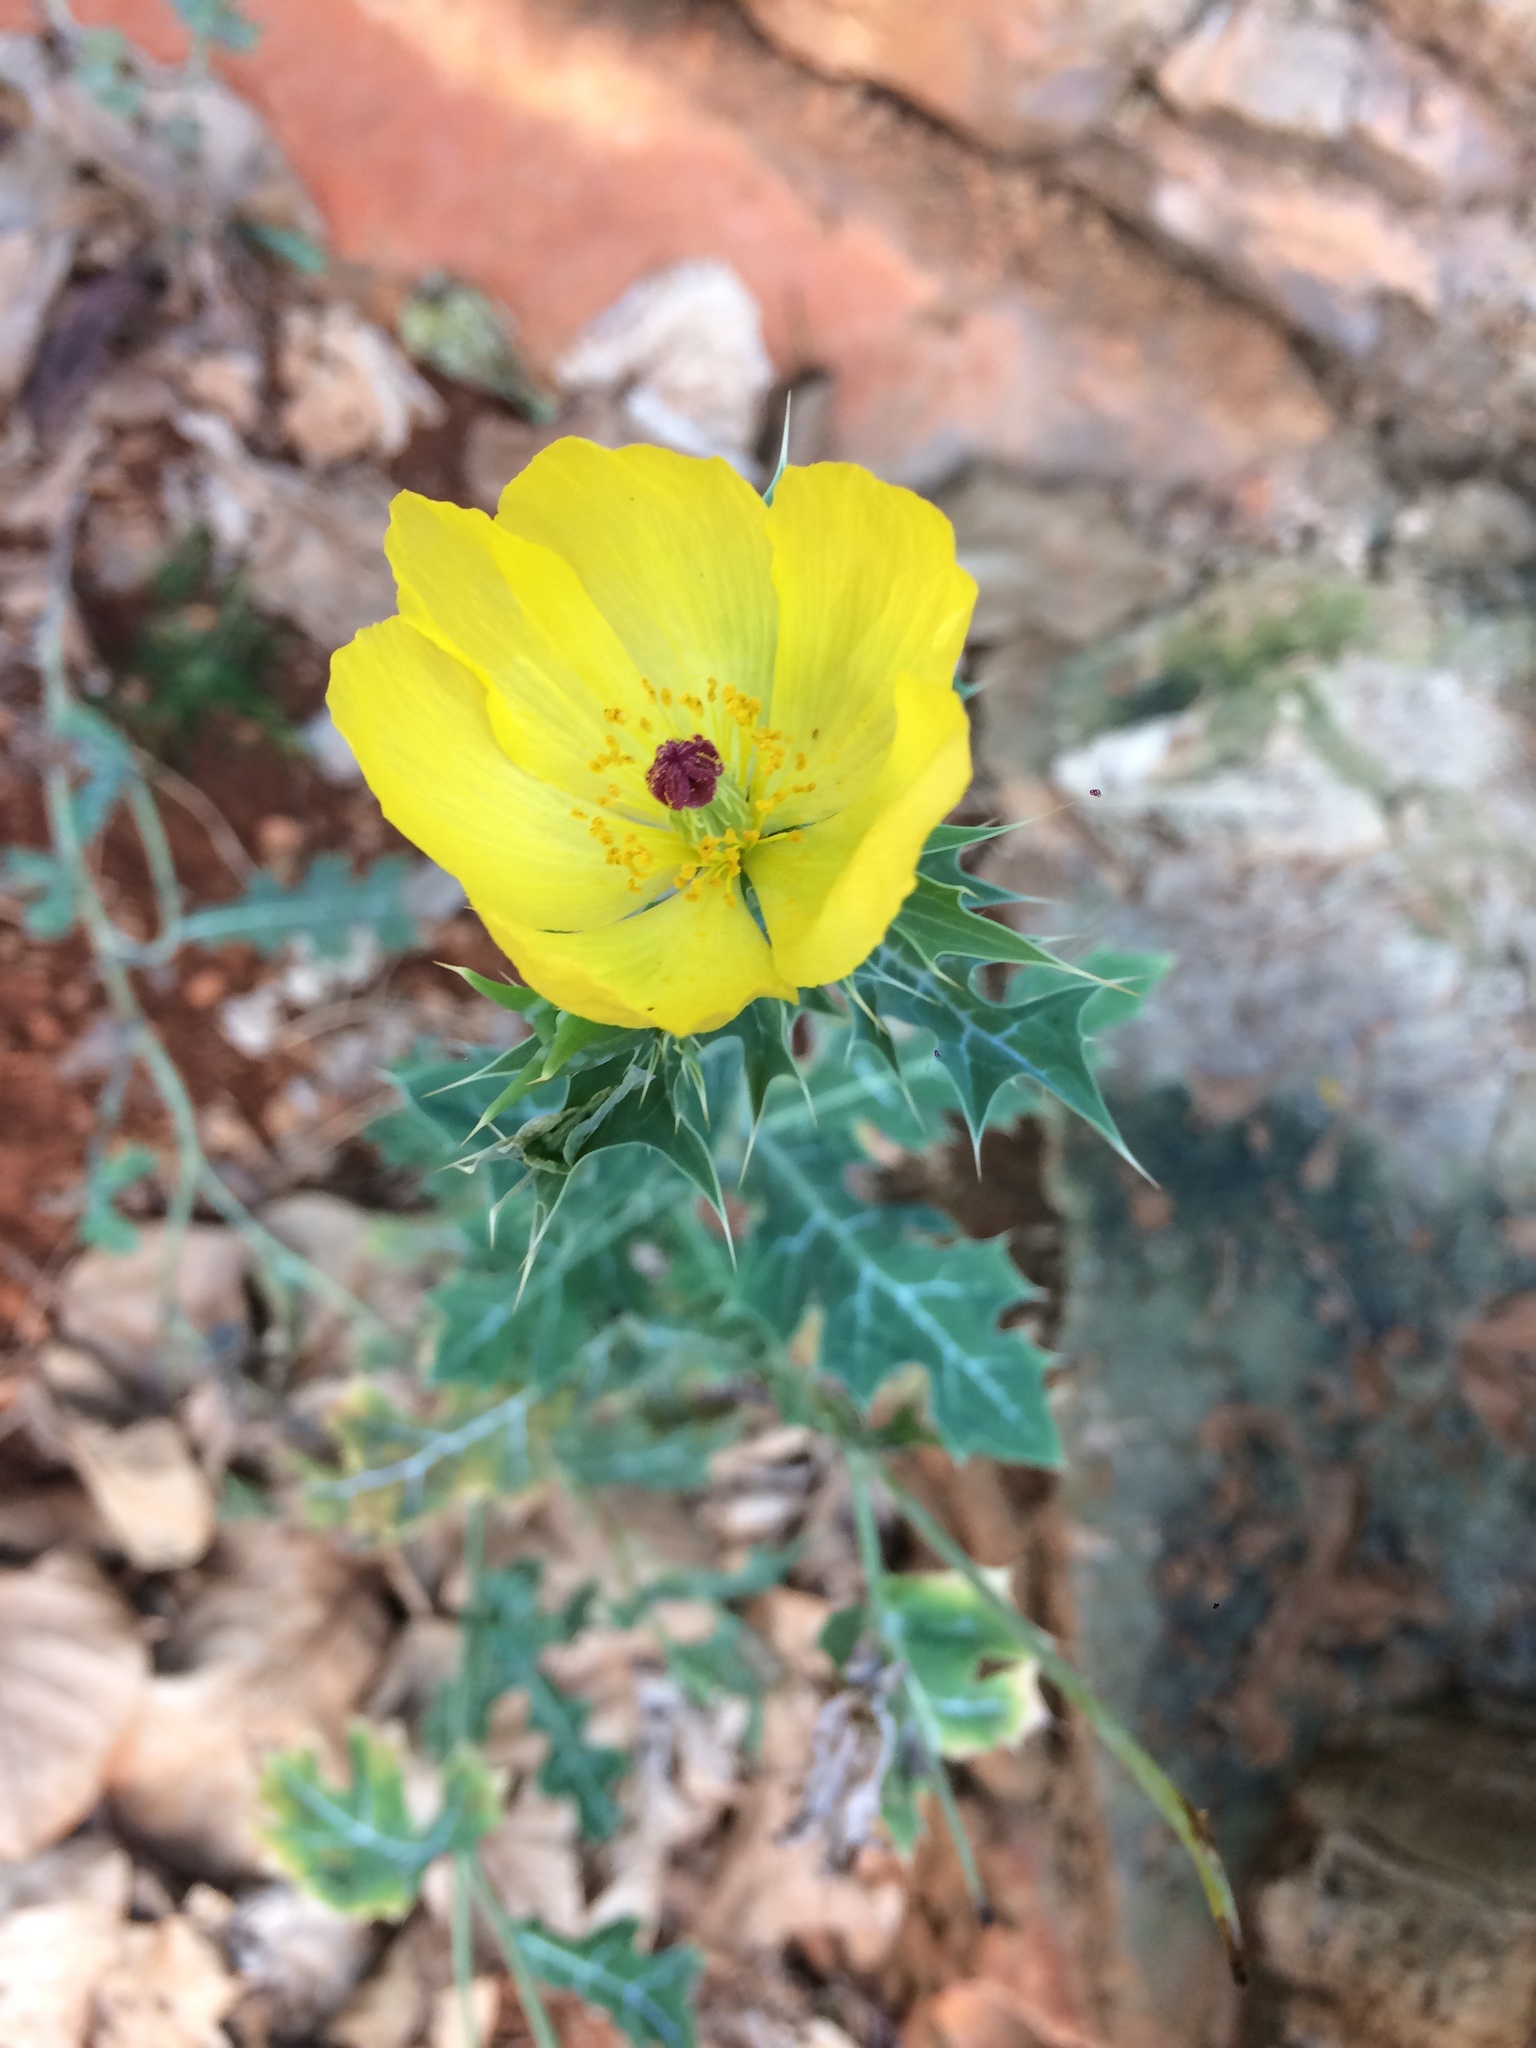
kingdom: Plantae
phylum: Tracheophyta
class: Magnoliopsida
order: Ranunculales
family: Papaveraceae
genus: Argemone
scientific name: Argemone mexicana
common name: Mexican poppy
